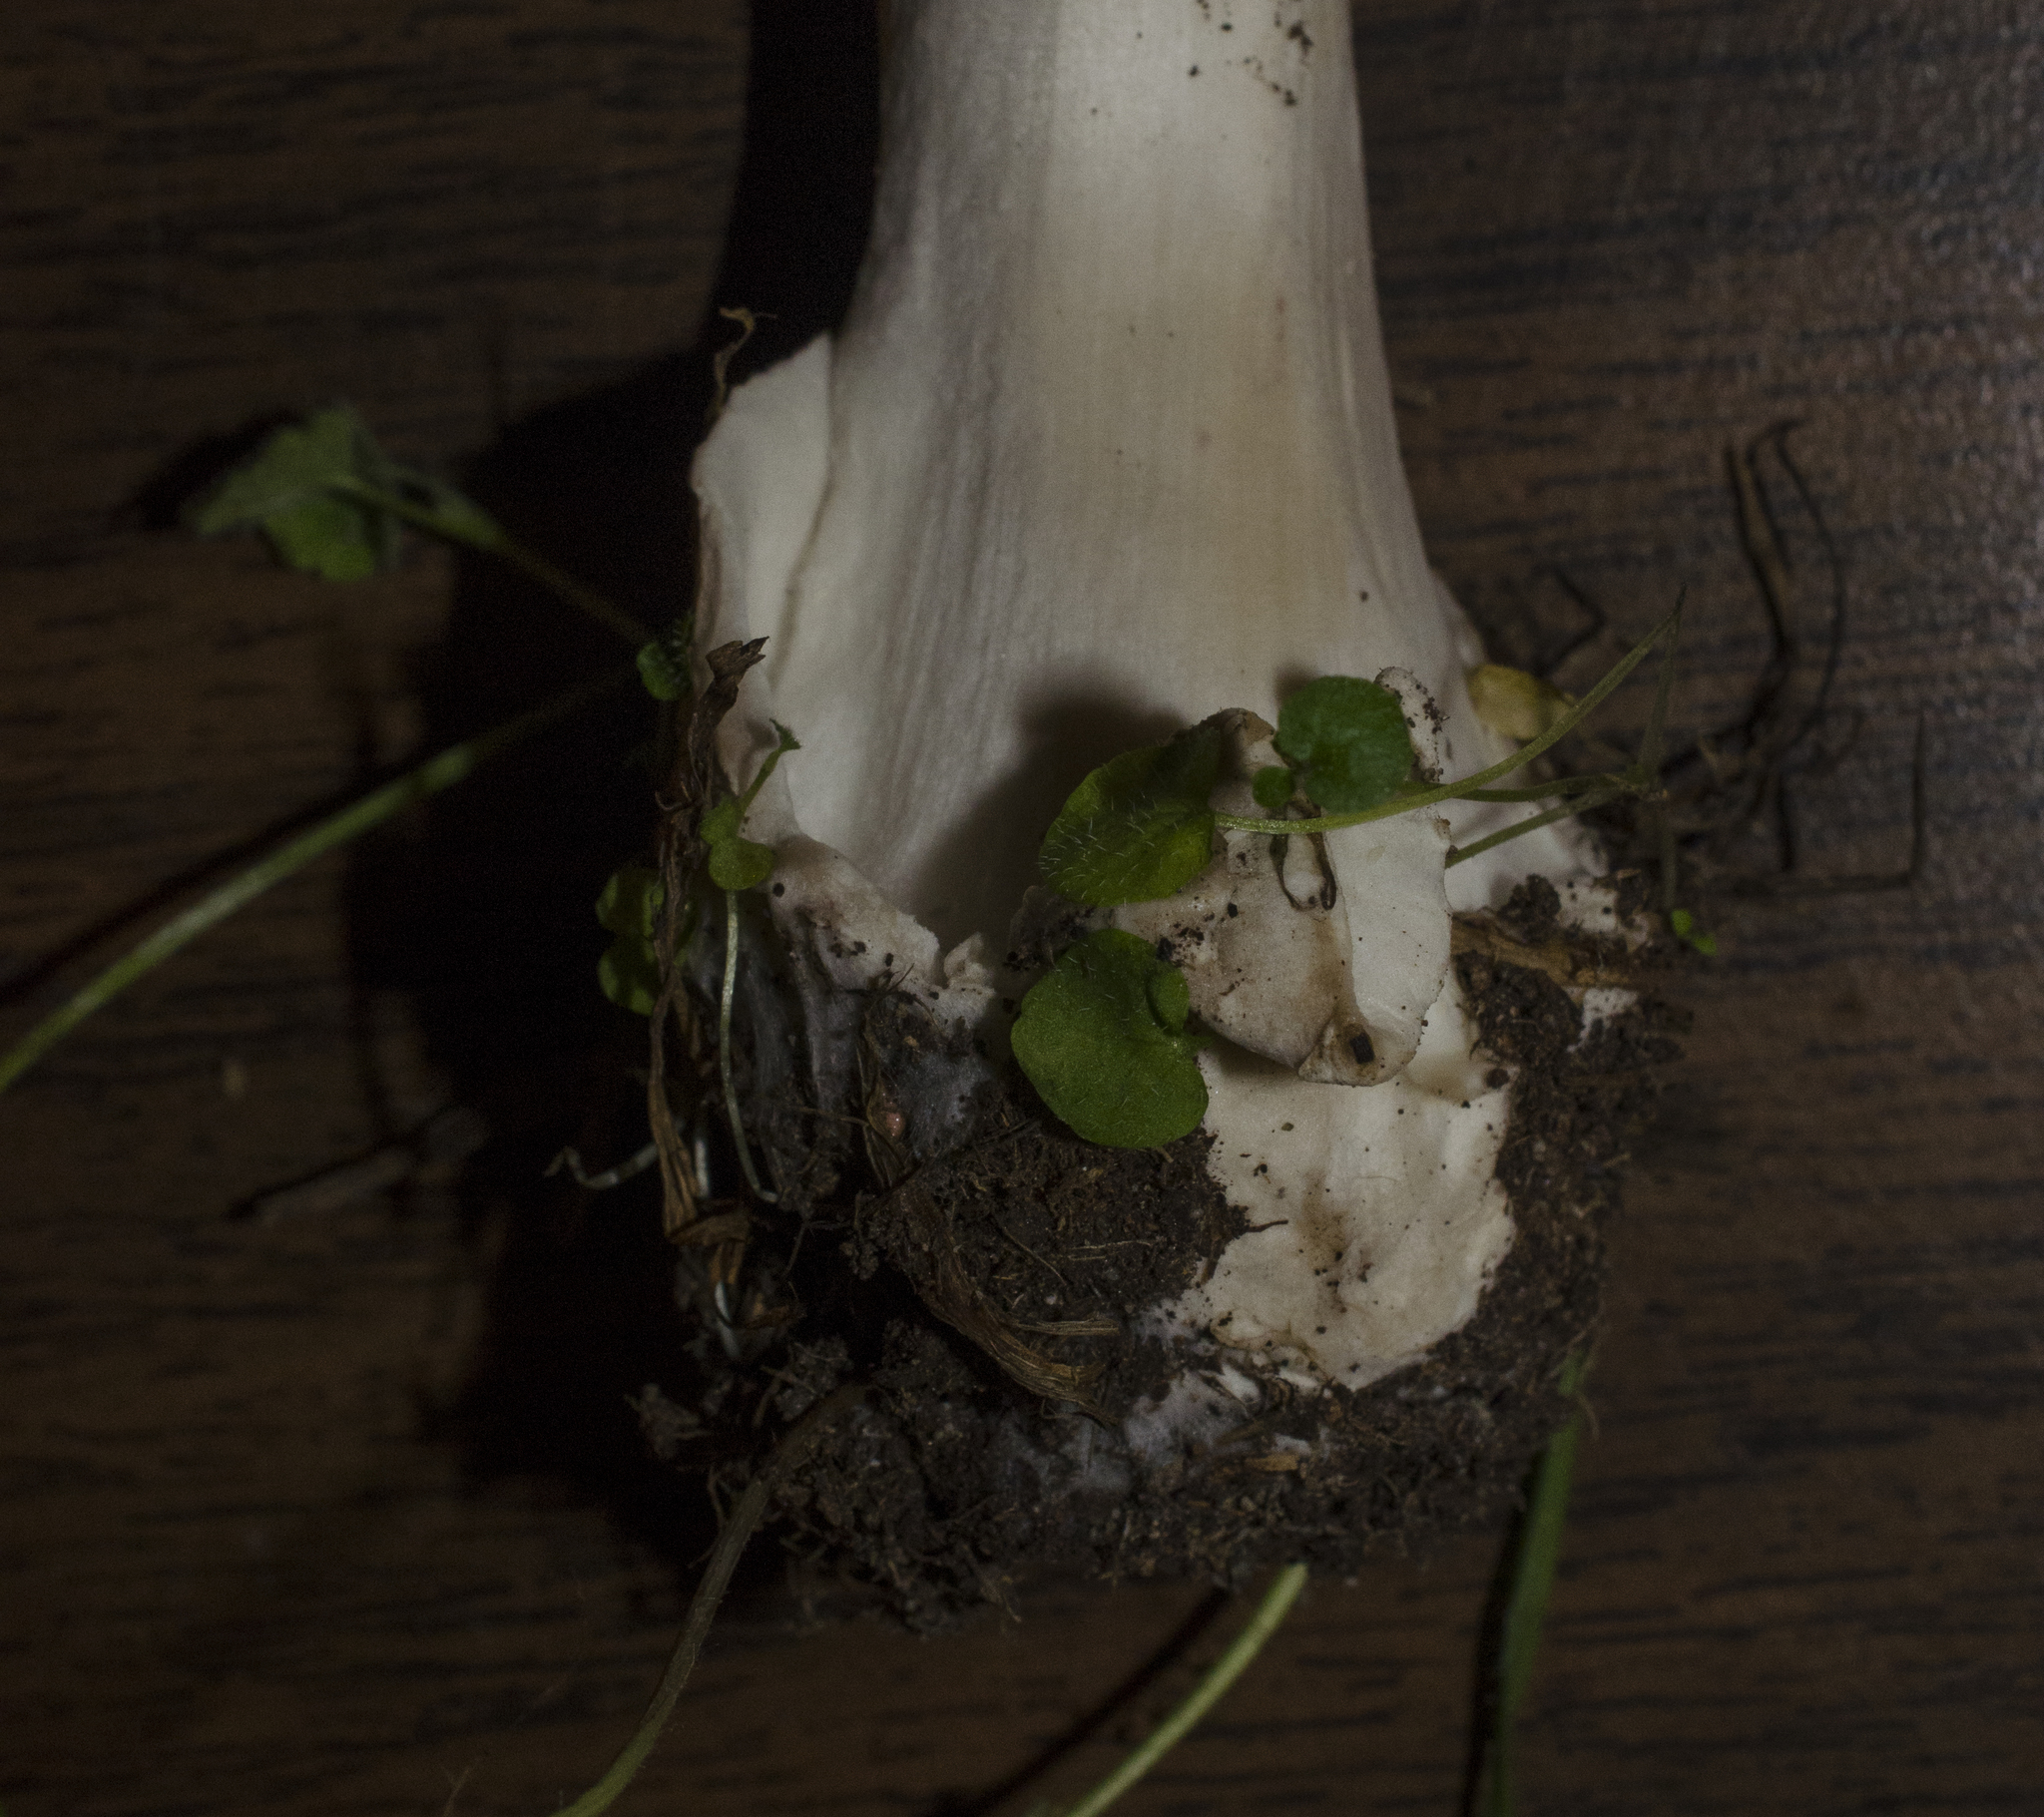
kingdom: Fungi
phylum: Basidiomycota
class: Agaricomycetes
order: Agaricales
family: Pluteaceae
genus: Volvopluteus
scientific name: Volvopluteus gloiocephalus
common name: Stubble rosegill
